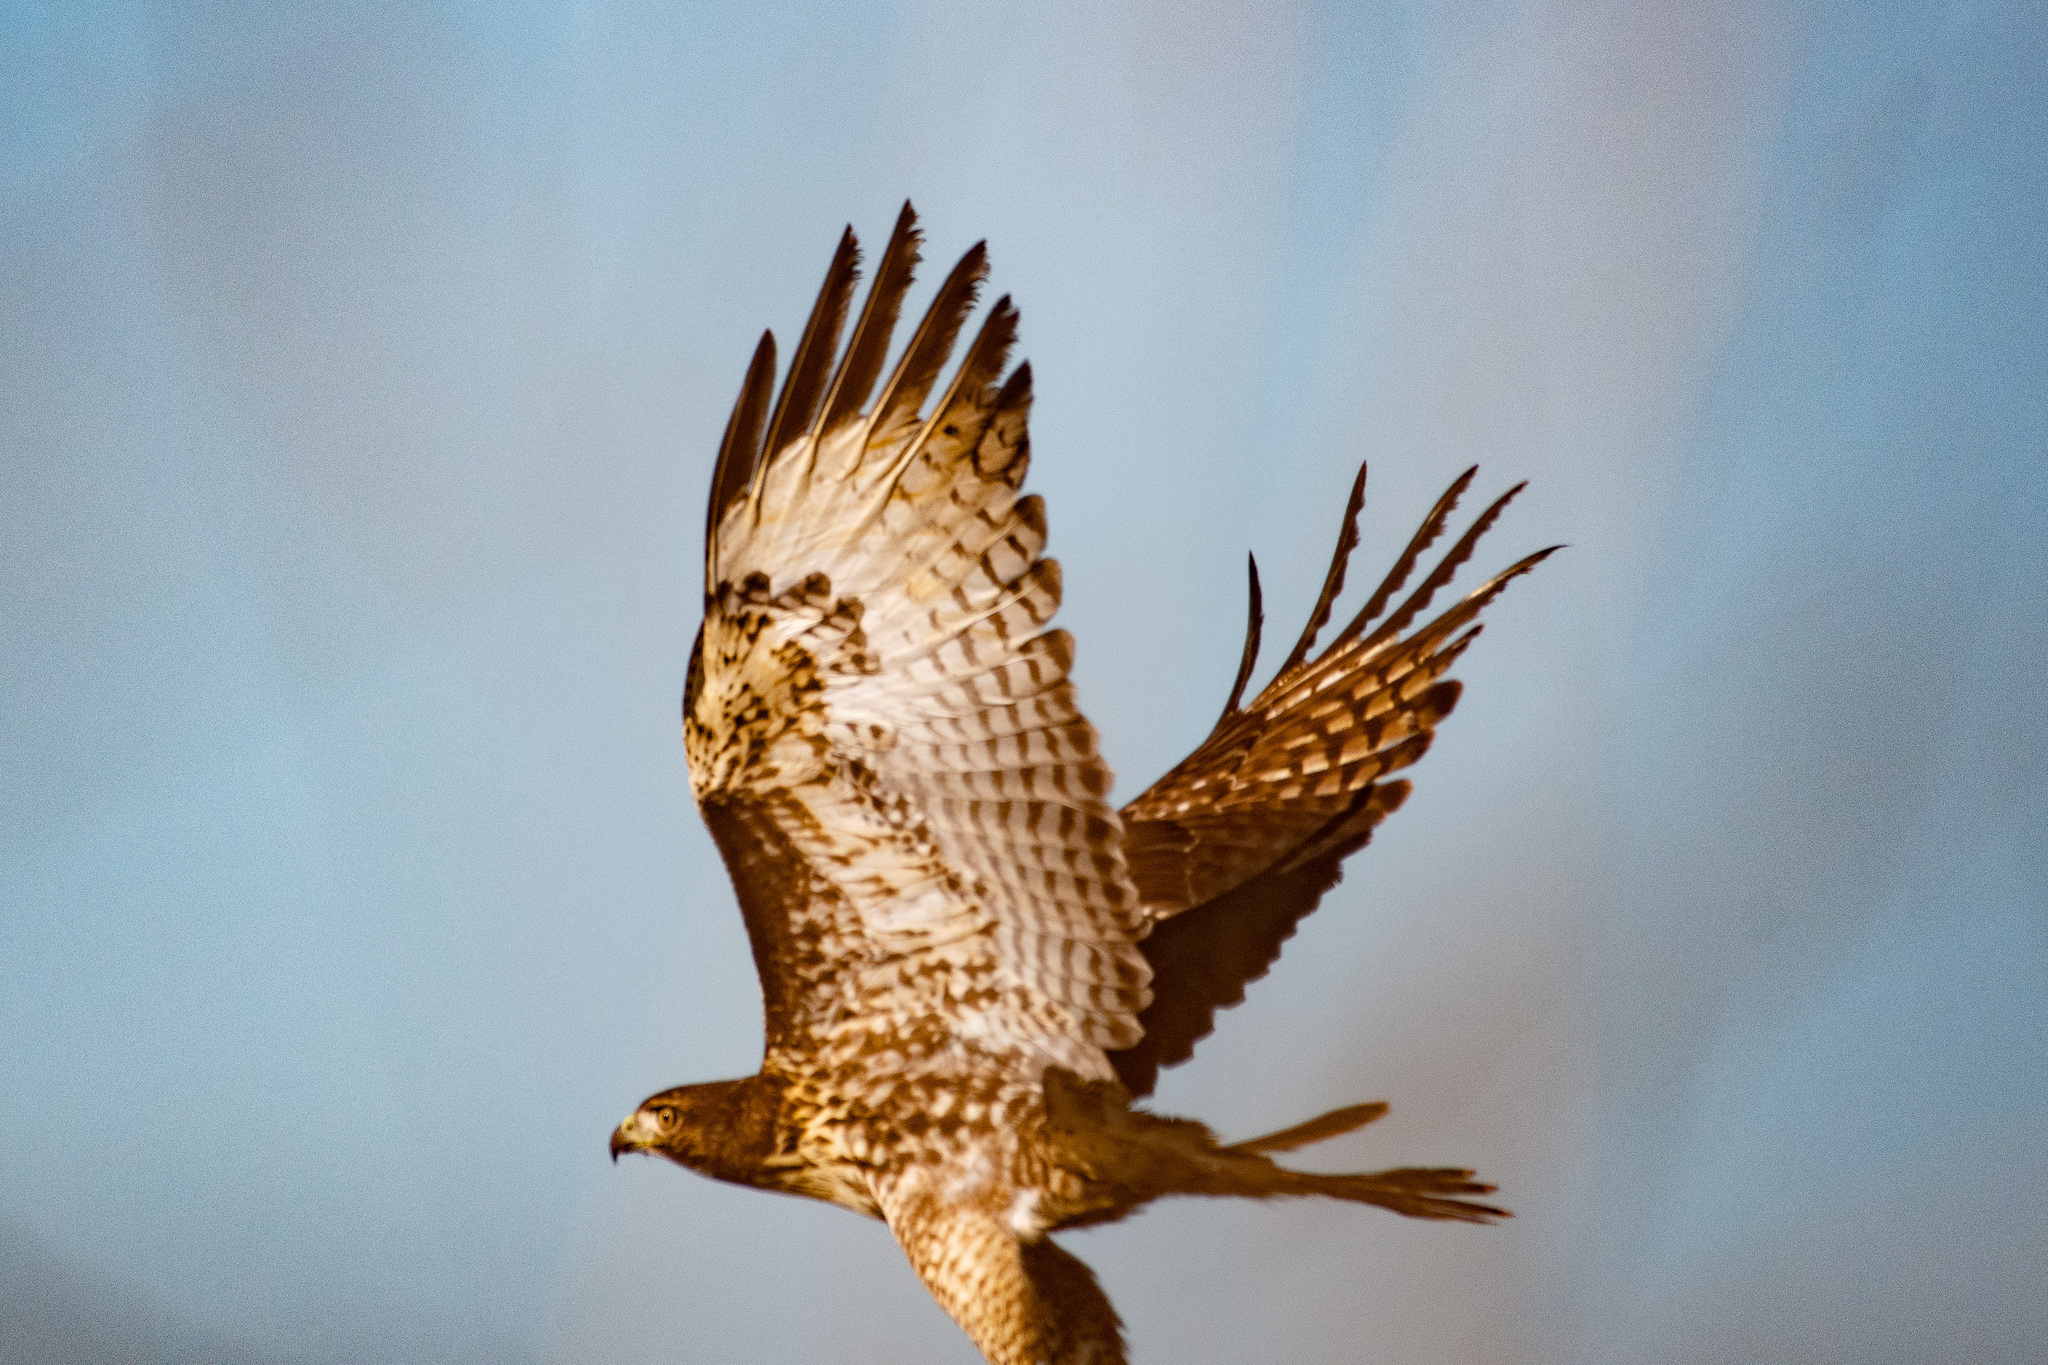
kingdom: Animalia
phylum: Chordata
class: Aves
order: Accipitriformes
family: Accipitridae
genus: Buteo
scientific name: Buteo jamaicensis
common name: Red-tailed hawk
